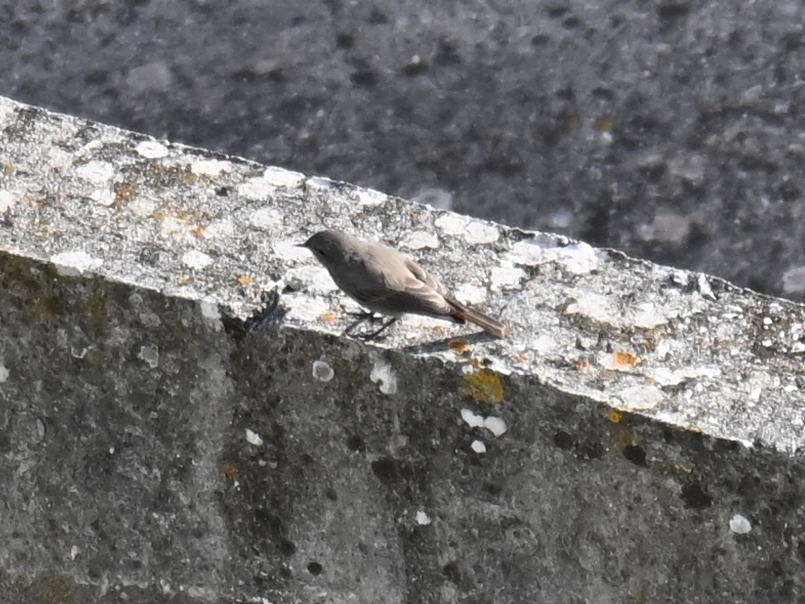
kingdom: Animalia
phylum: Chordata
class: Aves
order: Passeriformes
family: Muscicapidae
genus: Phoenicurus
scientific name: Phoenicurus ochruros
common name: Black redstart
